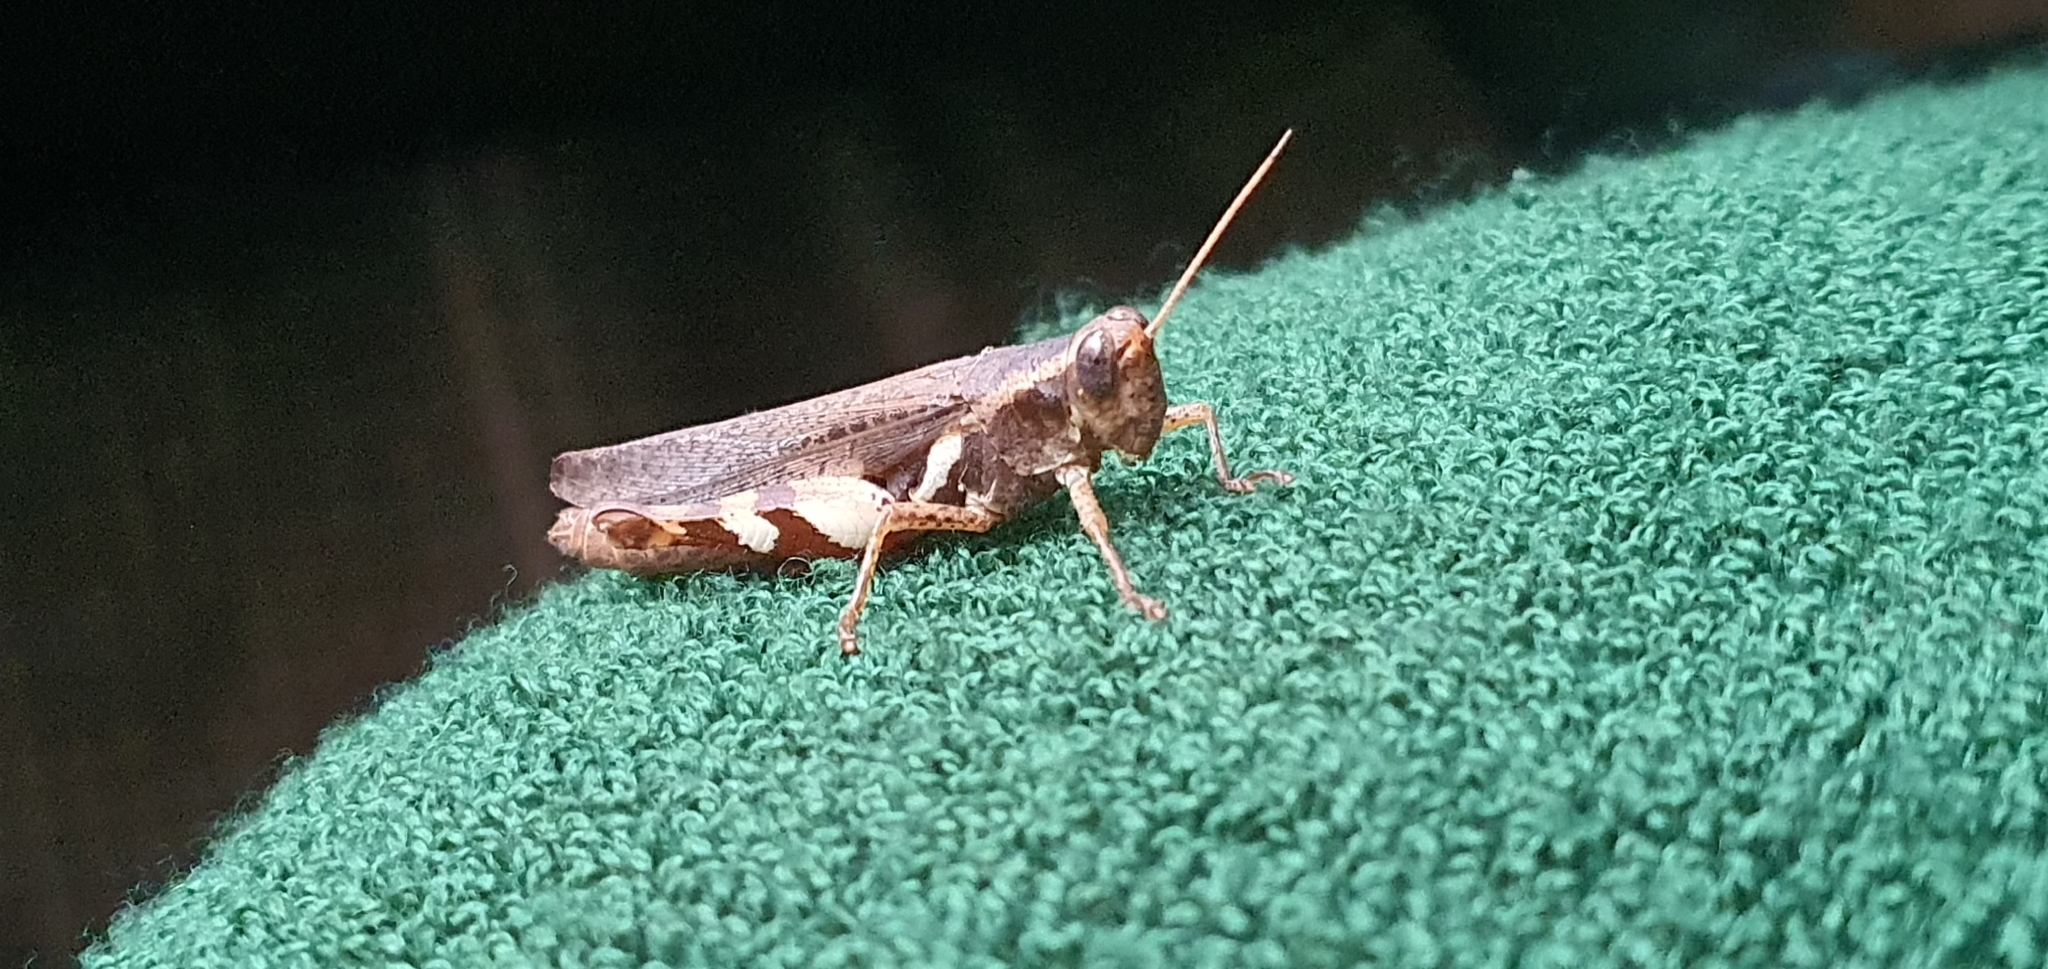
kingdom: Animalia
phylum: Arthropoda
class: Insecta
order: Orthoptera
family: Acrididae
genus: Xenocatantops
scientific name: Xenocatantops humile
